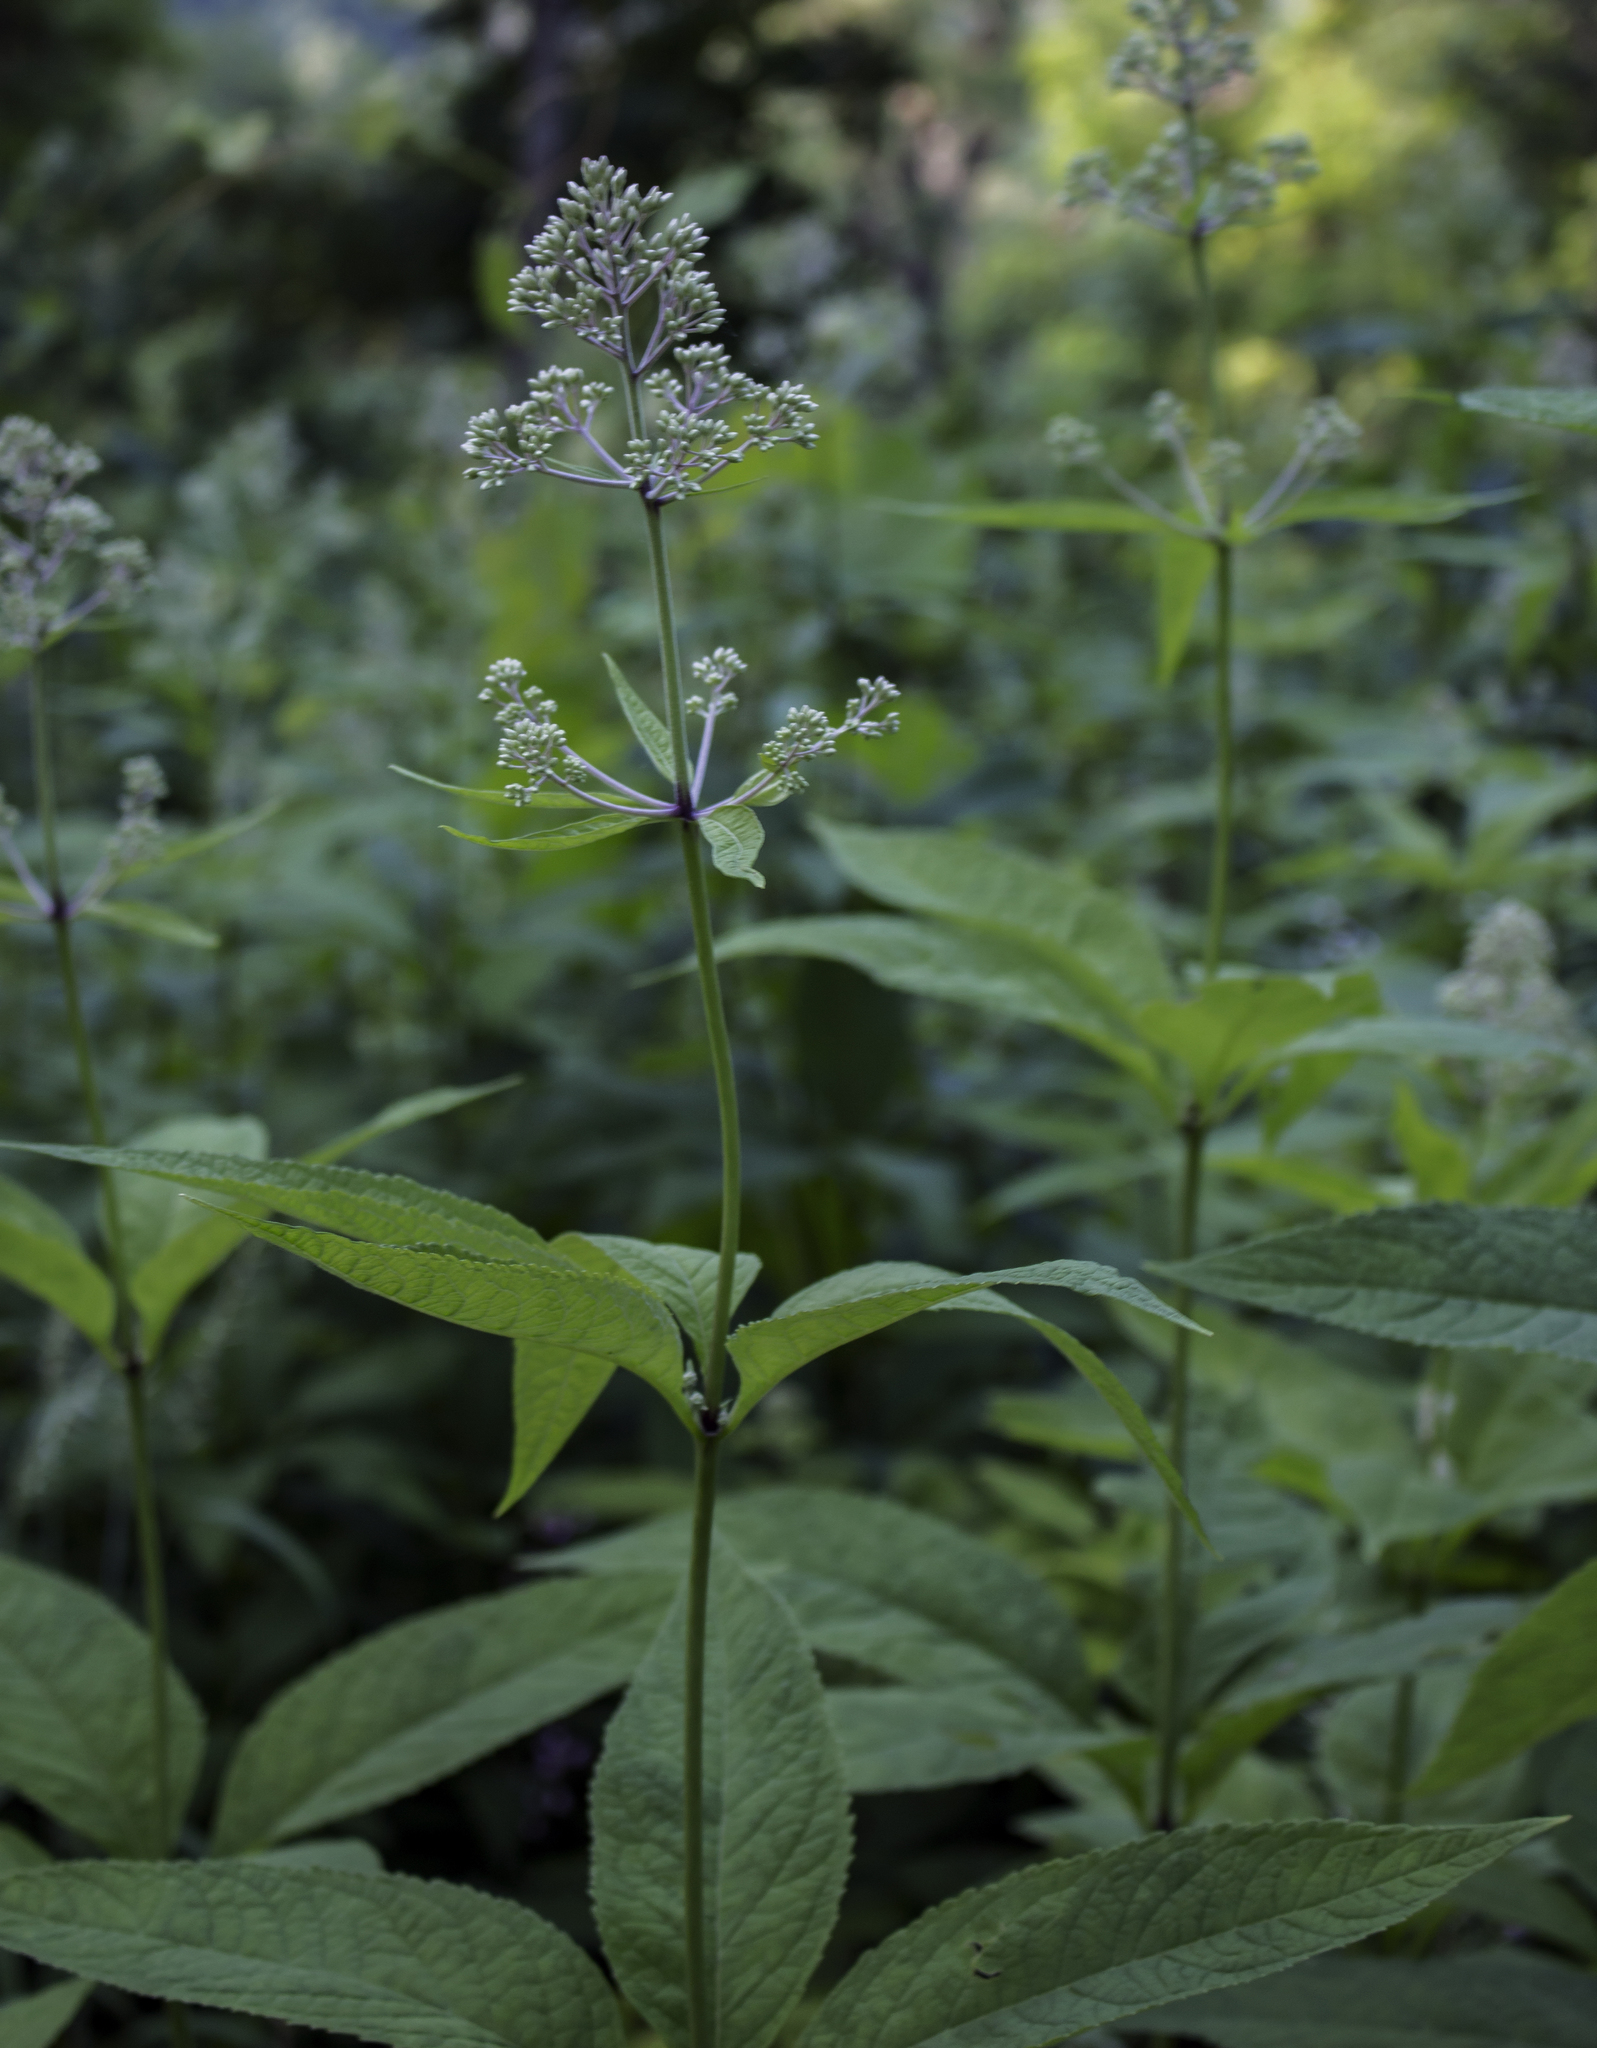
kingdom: Plantae
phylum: Tracheophyta
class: Magnoliopsida
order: Asterales
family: Asteraceae
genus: Eutrochium
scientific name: Eutrochium purpureum
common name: Gravelroot
